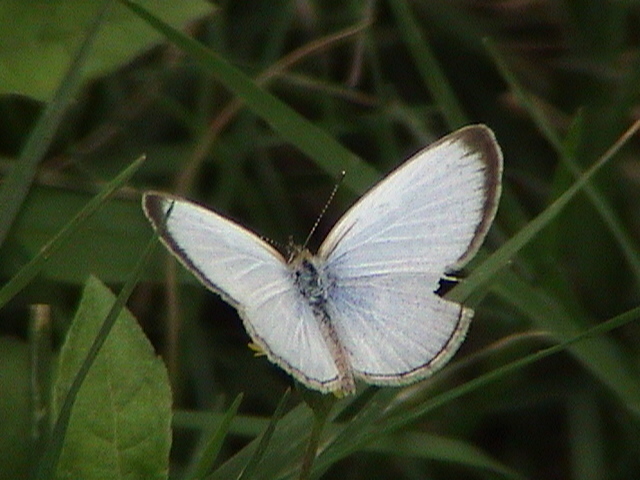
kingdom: Animalia
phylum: Arthropoda
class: Insecta
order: Lepidoptera
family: Lycaenidae
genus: Pseudozizeeria
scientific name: Pseudozizeeria maha
